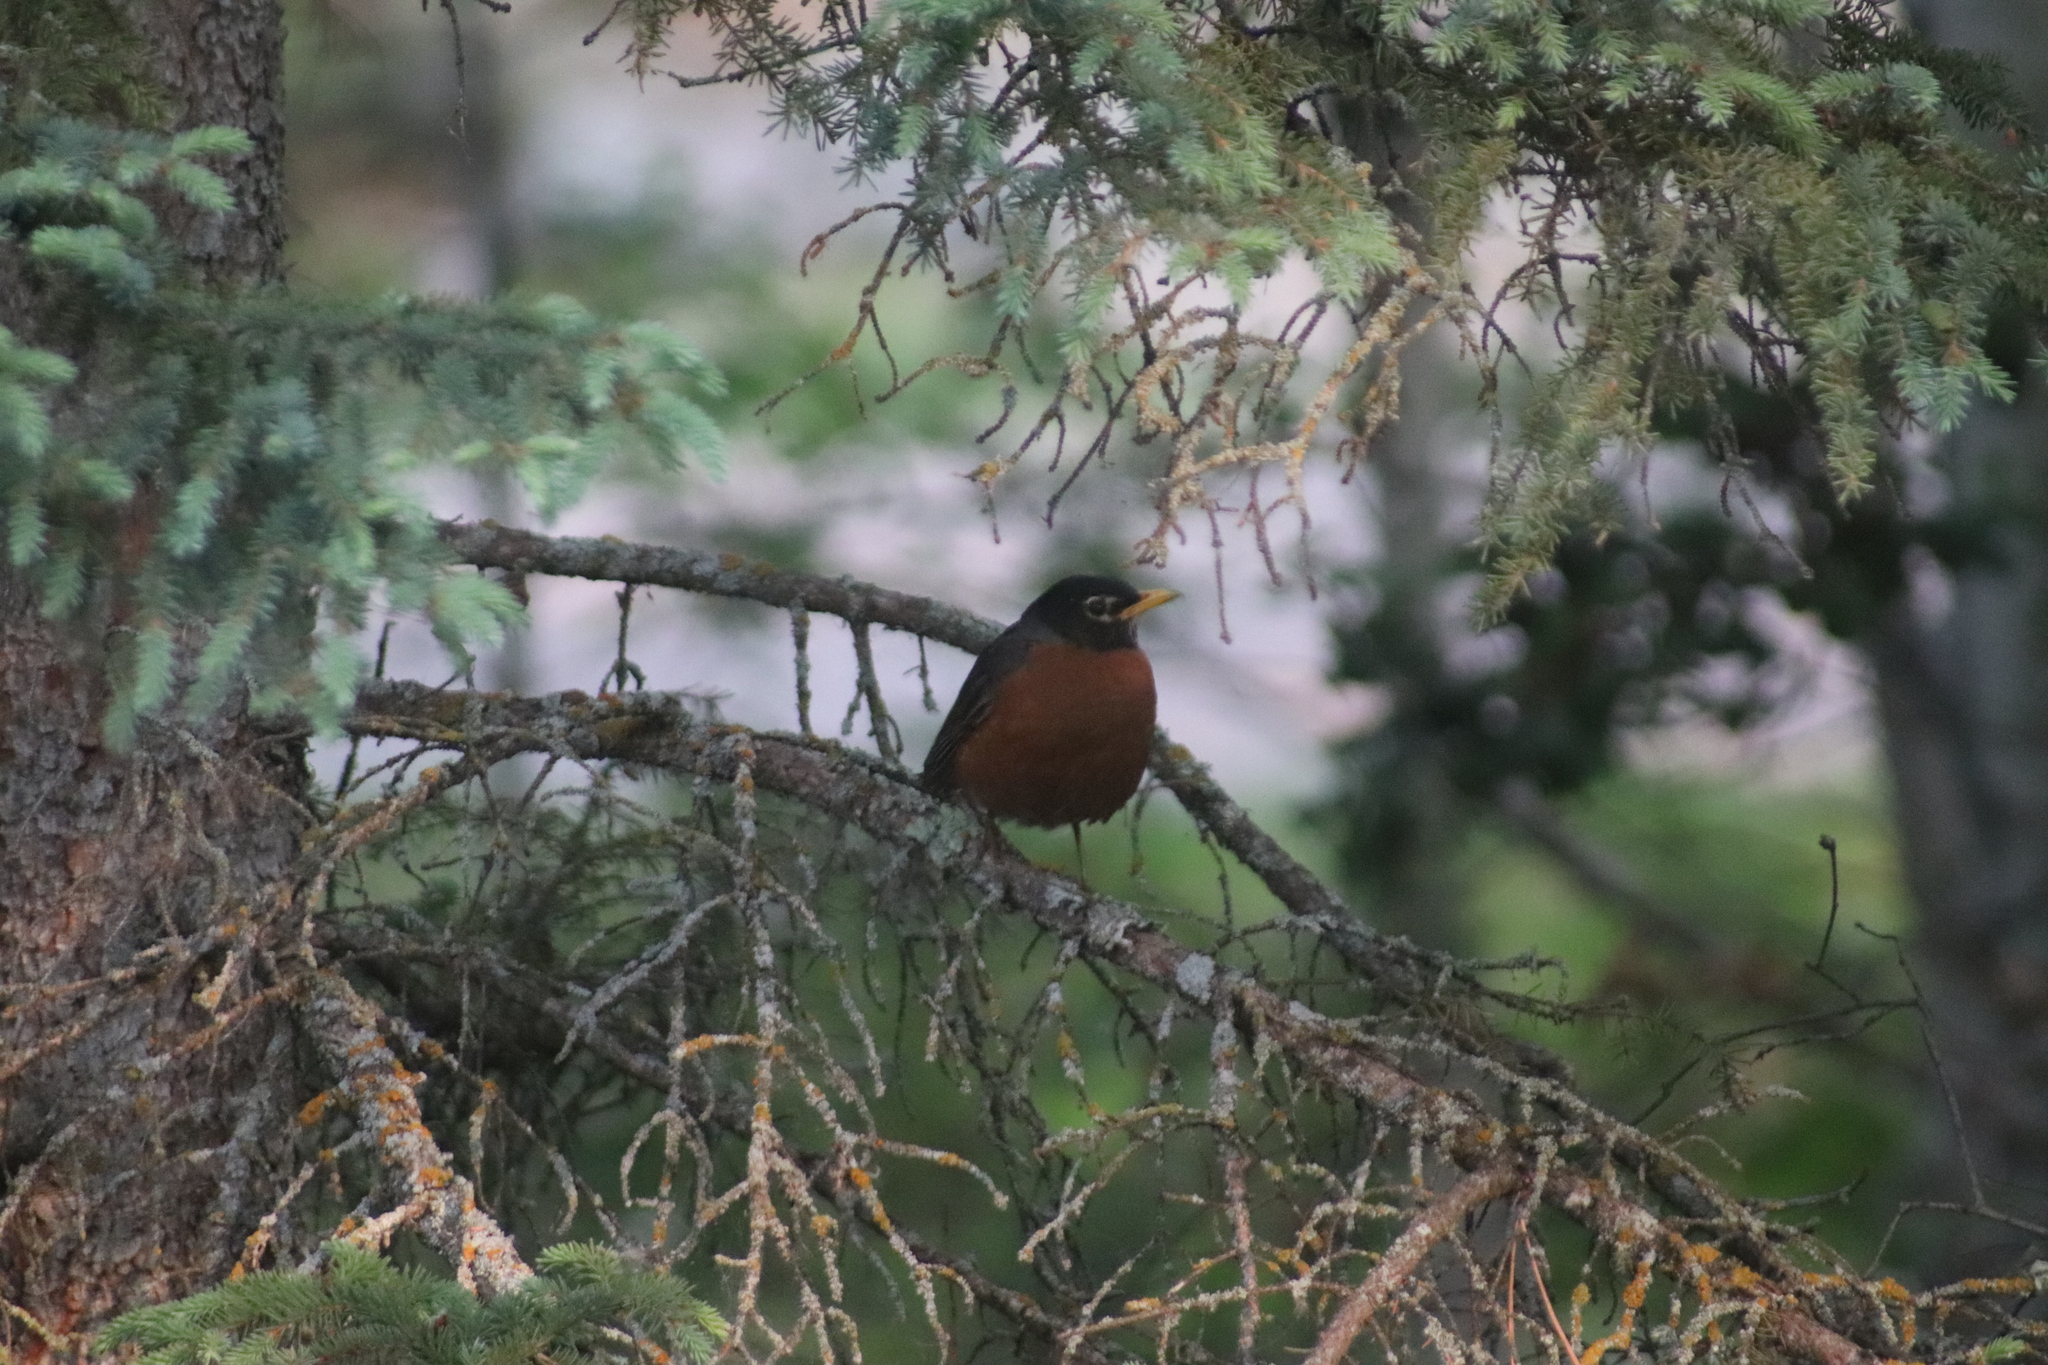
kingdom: Animalia
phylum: Chordata
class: Aves
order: Passeriformes
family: Turdidae
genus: Turdus
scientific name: Turdus migratorius
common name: American robin
